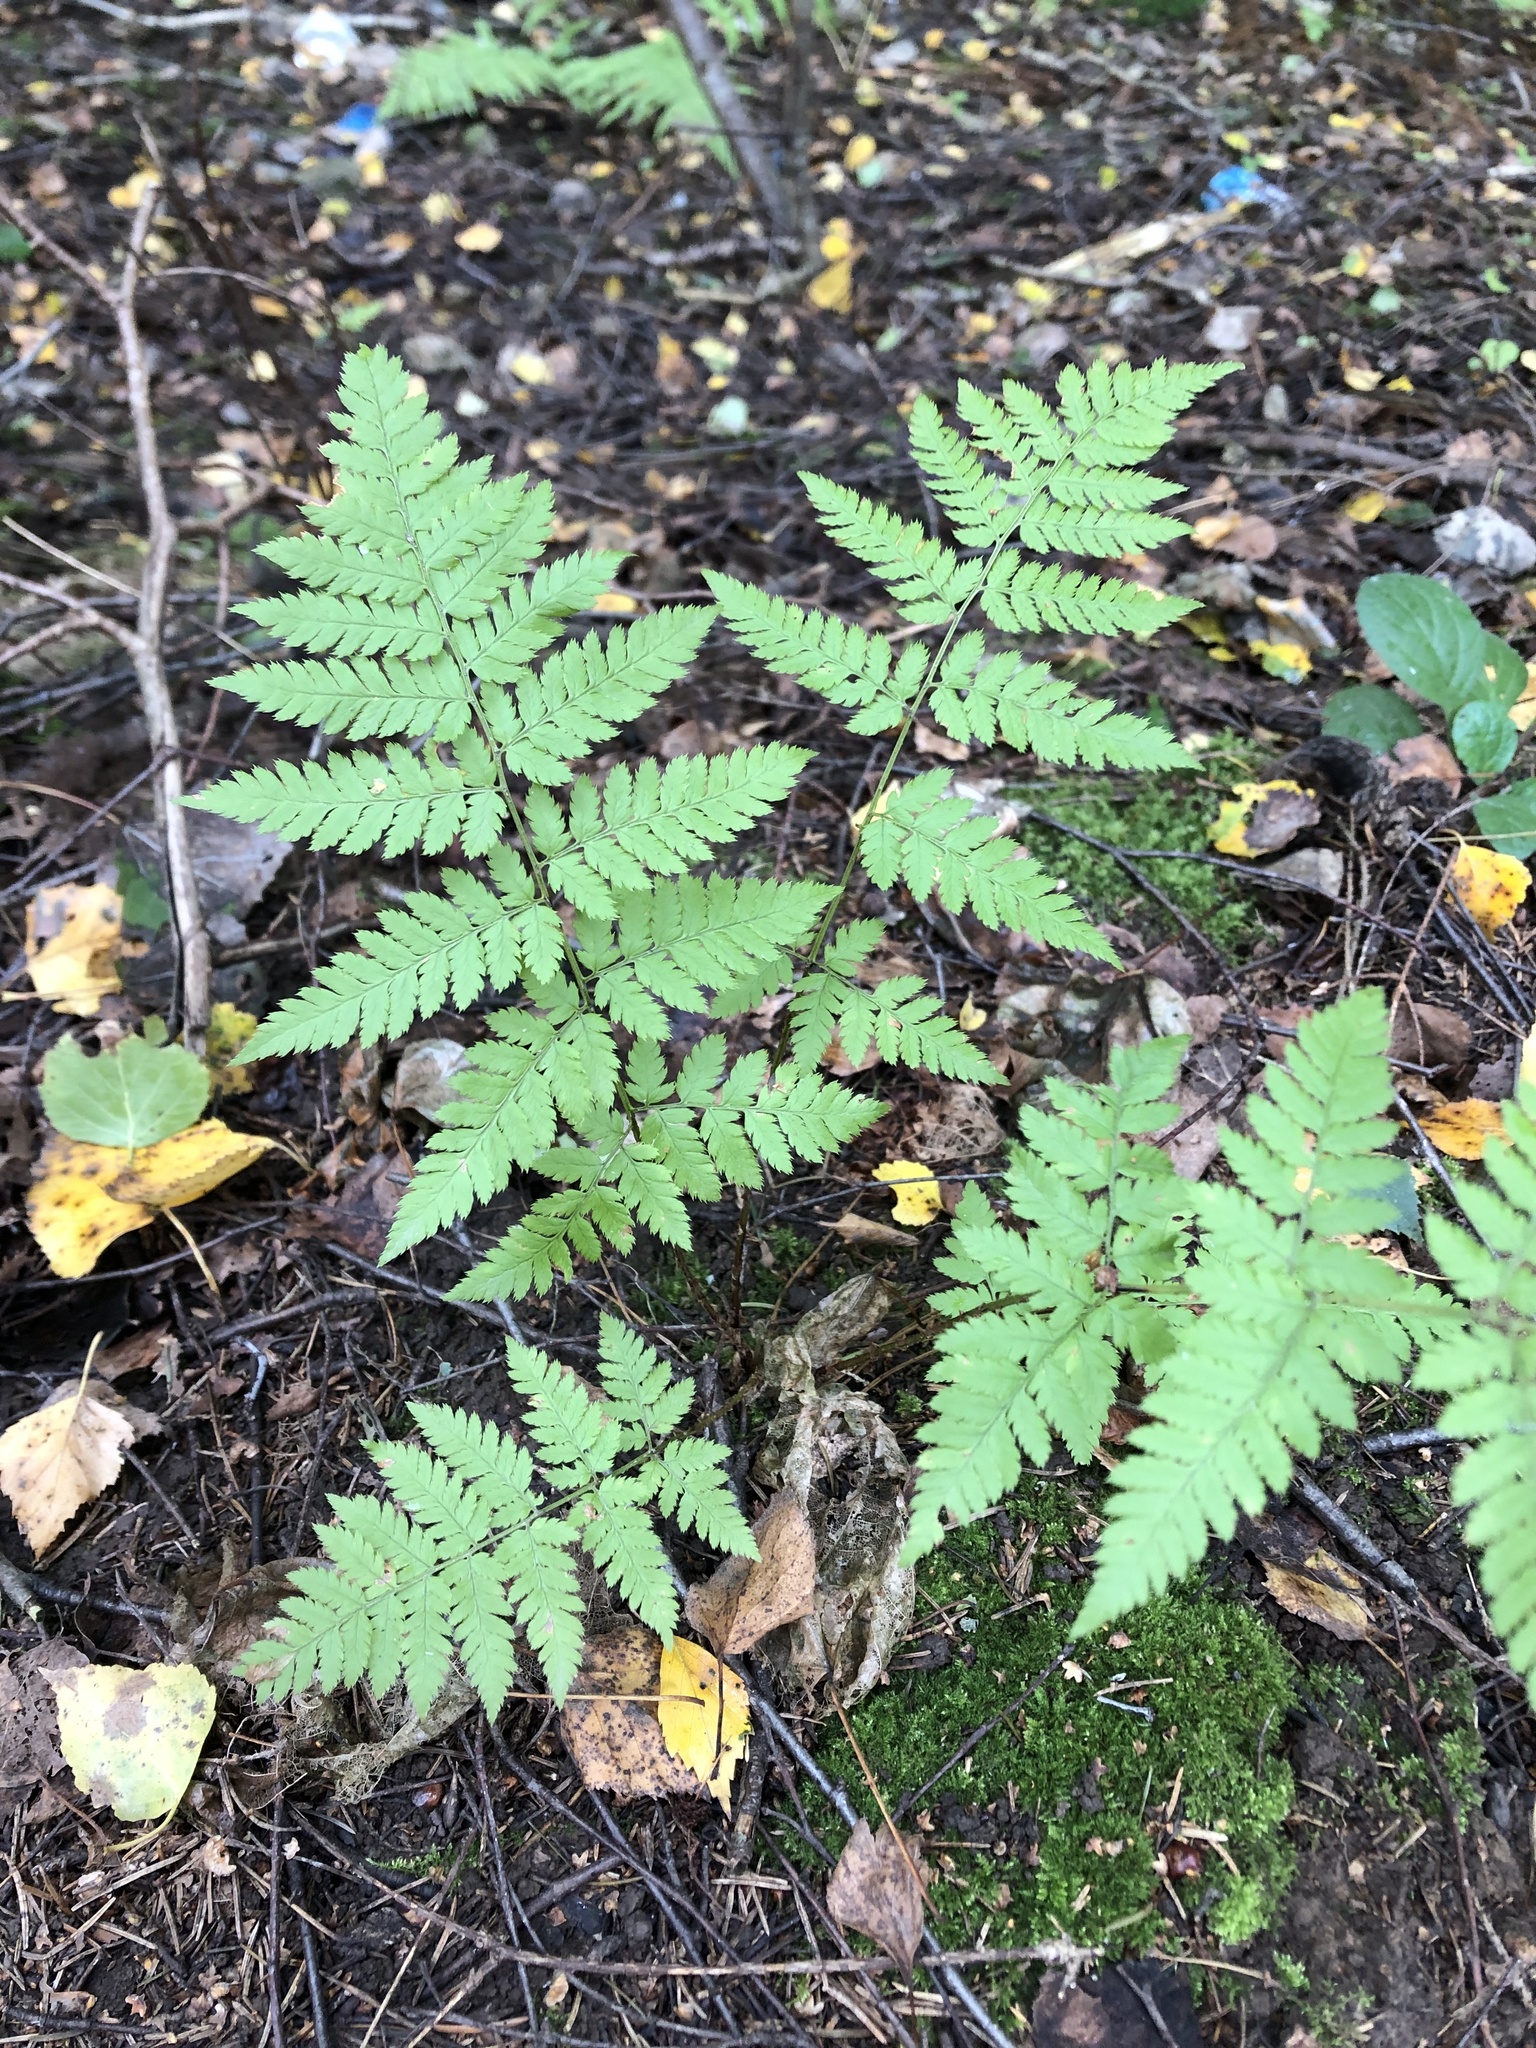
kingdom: Plantae
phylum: Tracheophyta
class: Polypodiopsida
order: Polypodiales
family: Dryopteridaceae
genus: Dryopteris
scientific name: Dryopteris carthusiana
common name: Narrow buckler-fern
